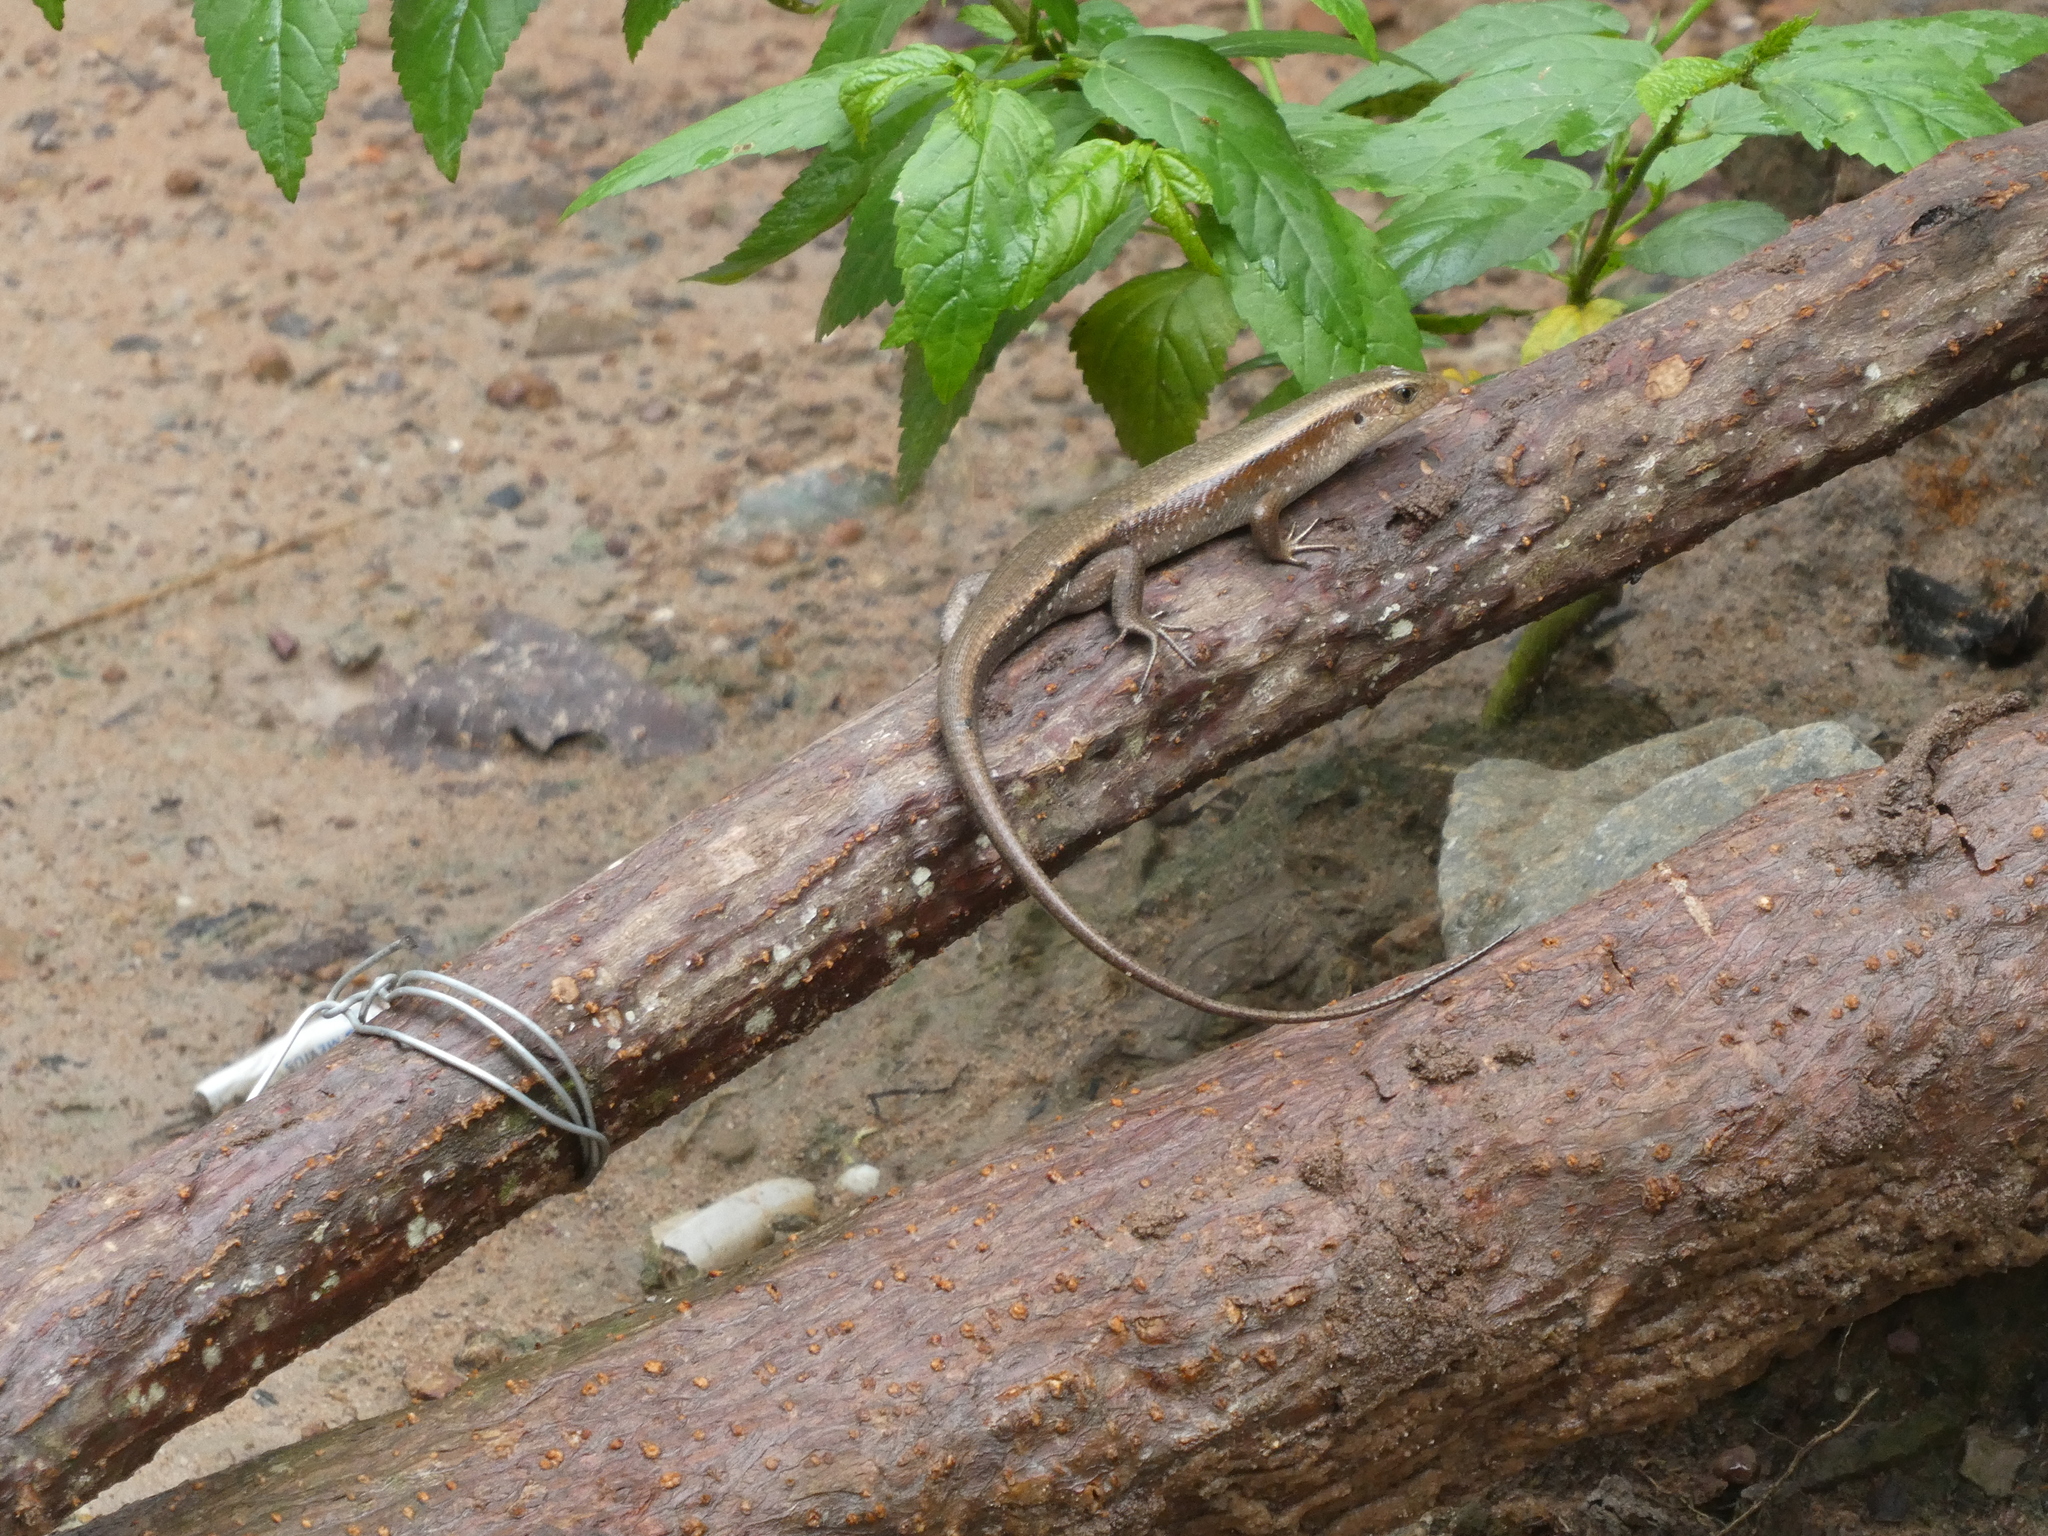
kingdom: Animalia
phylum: Chordata
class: Squamata
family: Scincidae
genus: Eutropis
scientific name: Eutropis multifasciata
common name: Common mabuya
